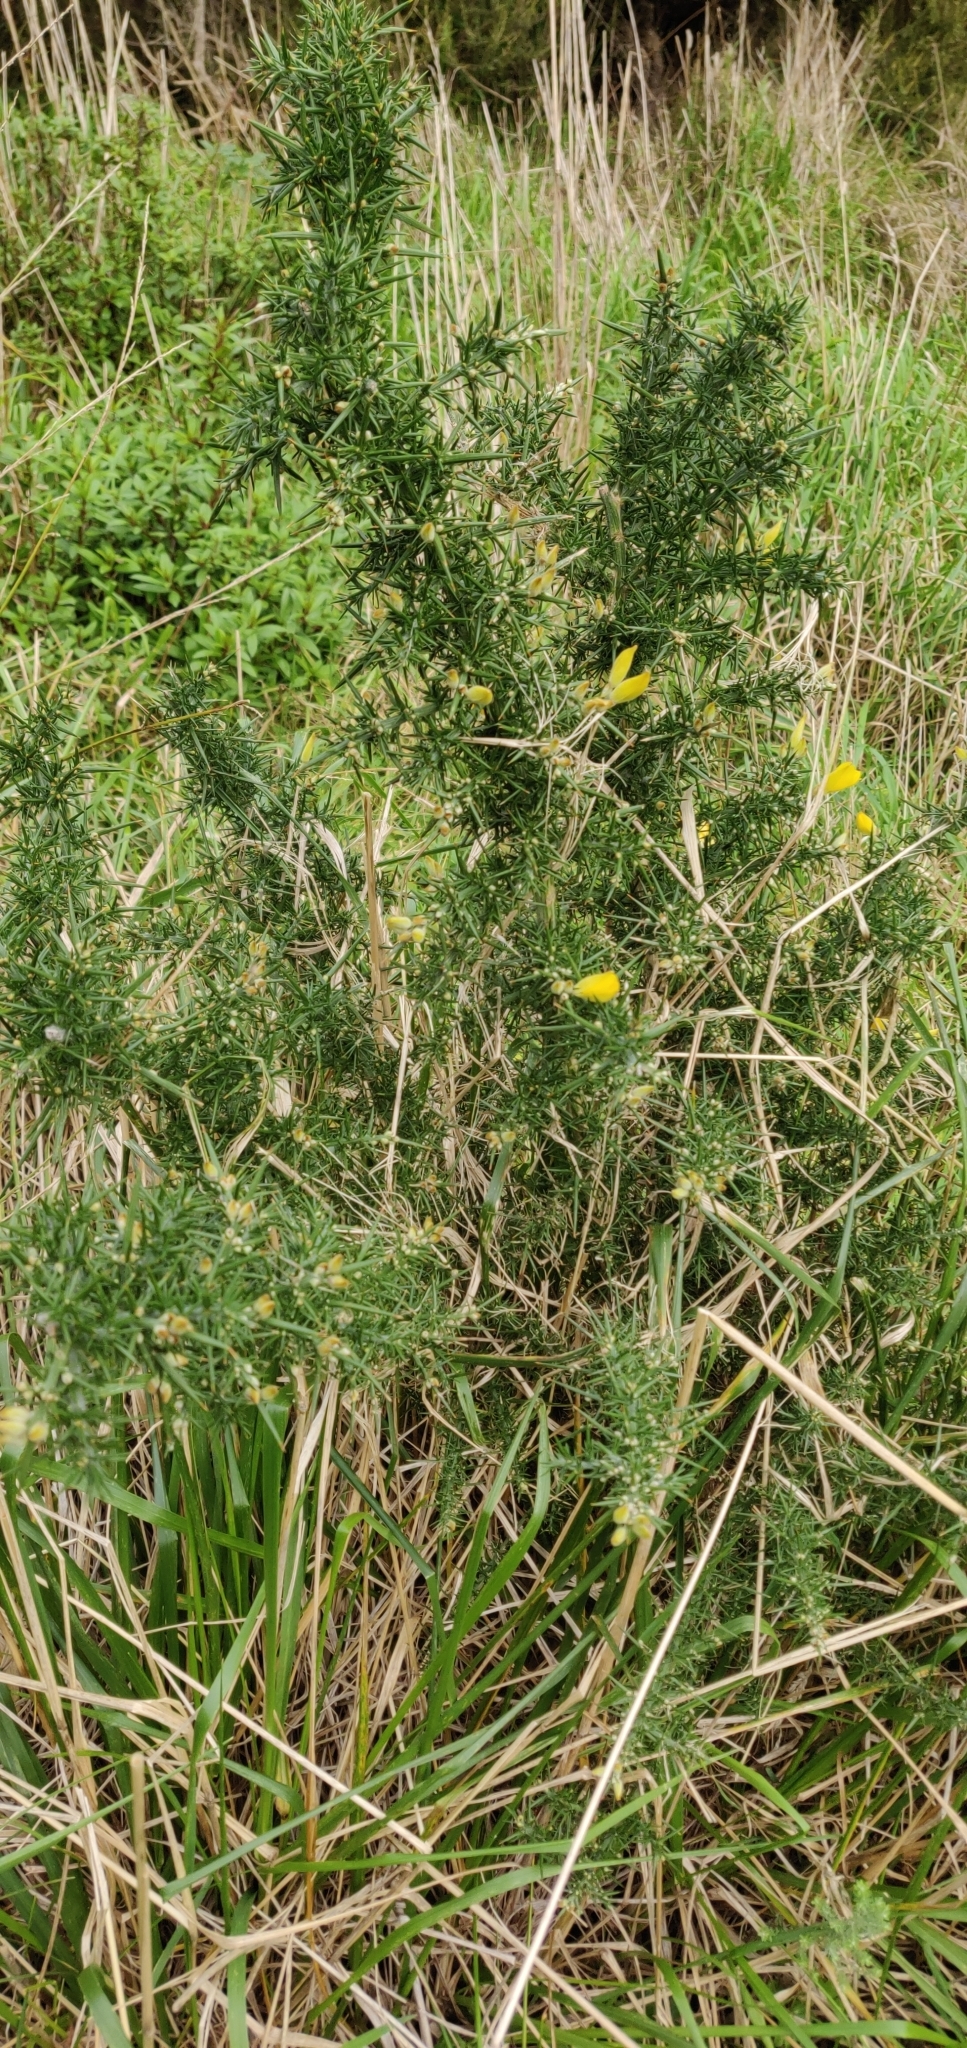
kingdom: Plantae
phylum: Tracheophyta
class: Magnoliopsida
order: Fabales
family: Fabaceae
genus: Ulex
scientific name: Ulex europaeus
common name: Common gorse
